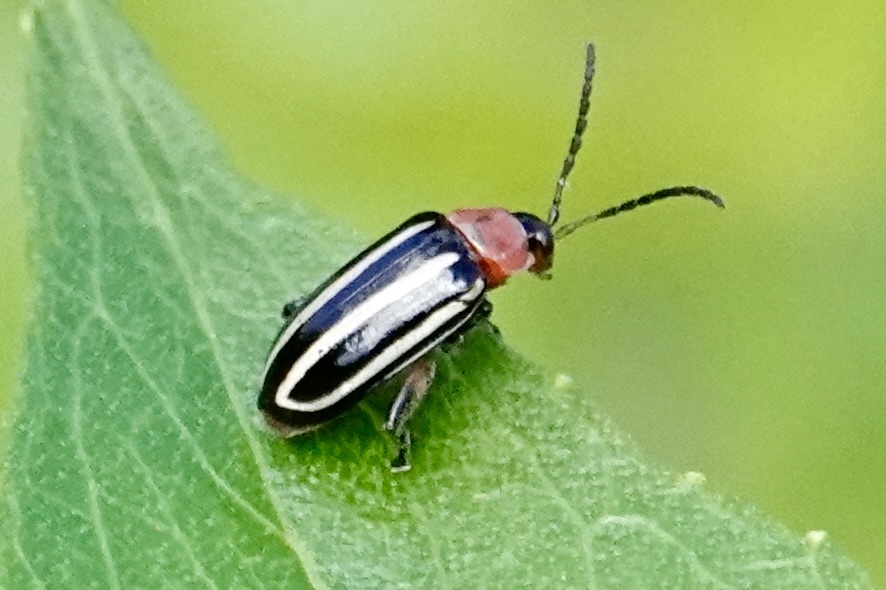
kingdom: Animalia
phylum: Arthropoda
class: Insecta
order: Coleoptera
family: Chrysomelidae
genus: Disonycha
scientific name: Disonycha glabrata
